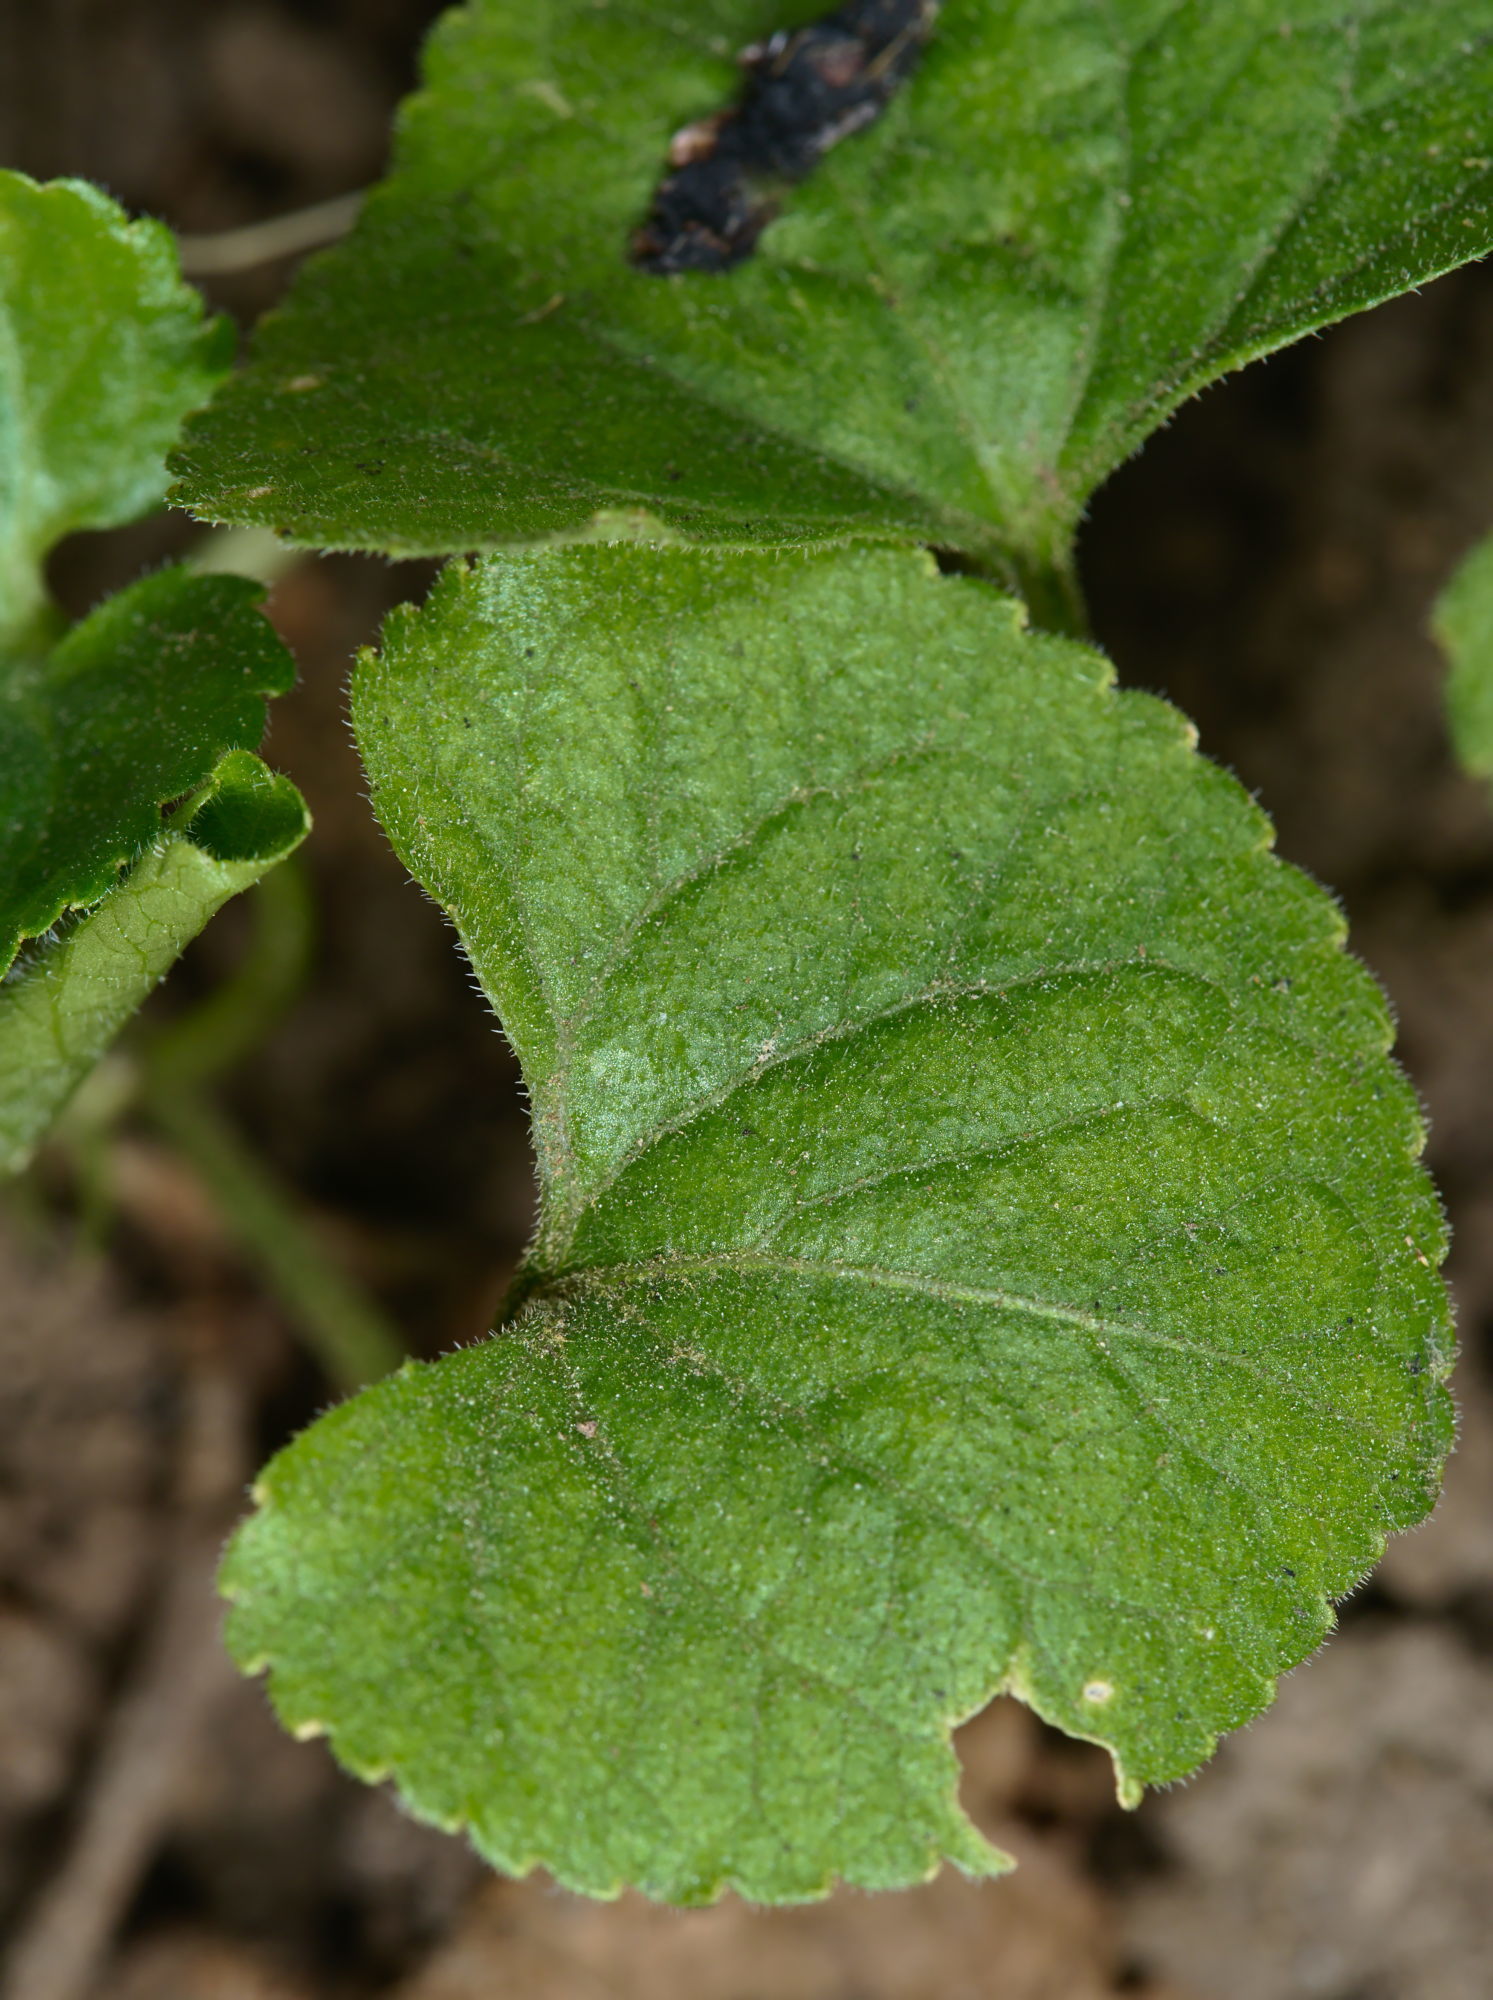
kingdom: Plantae
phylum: Tracheophyta
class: Magnoliopsida
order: Malpighiales
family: Violaceae
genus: Viola
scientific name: Viola odorata
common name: Sweet violet
